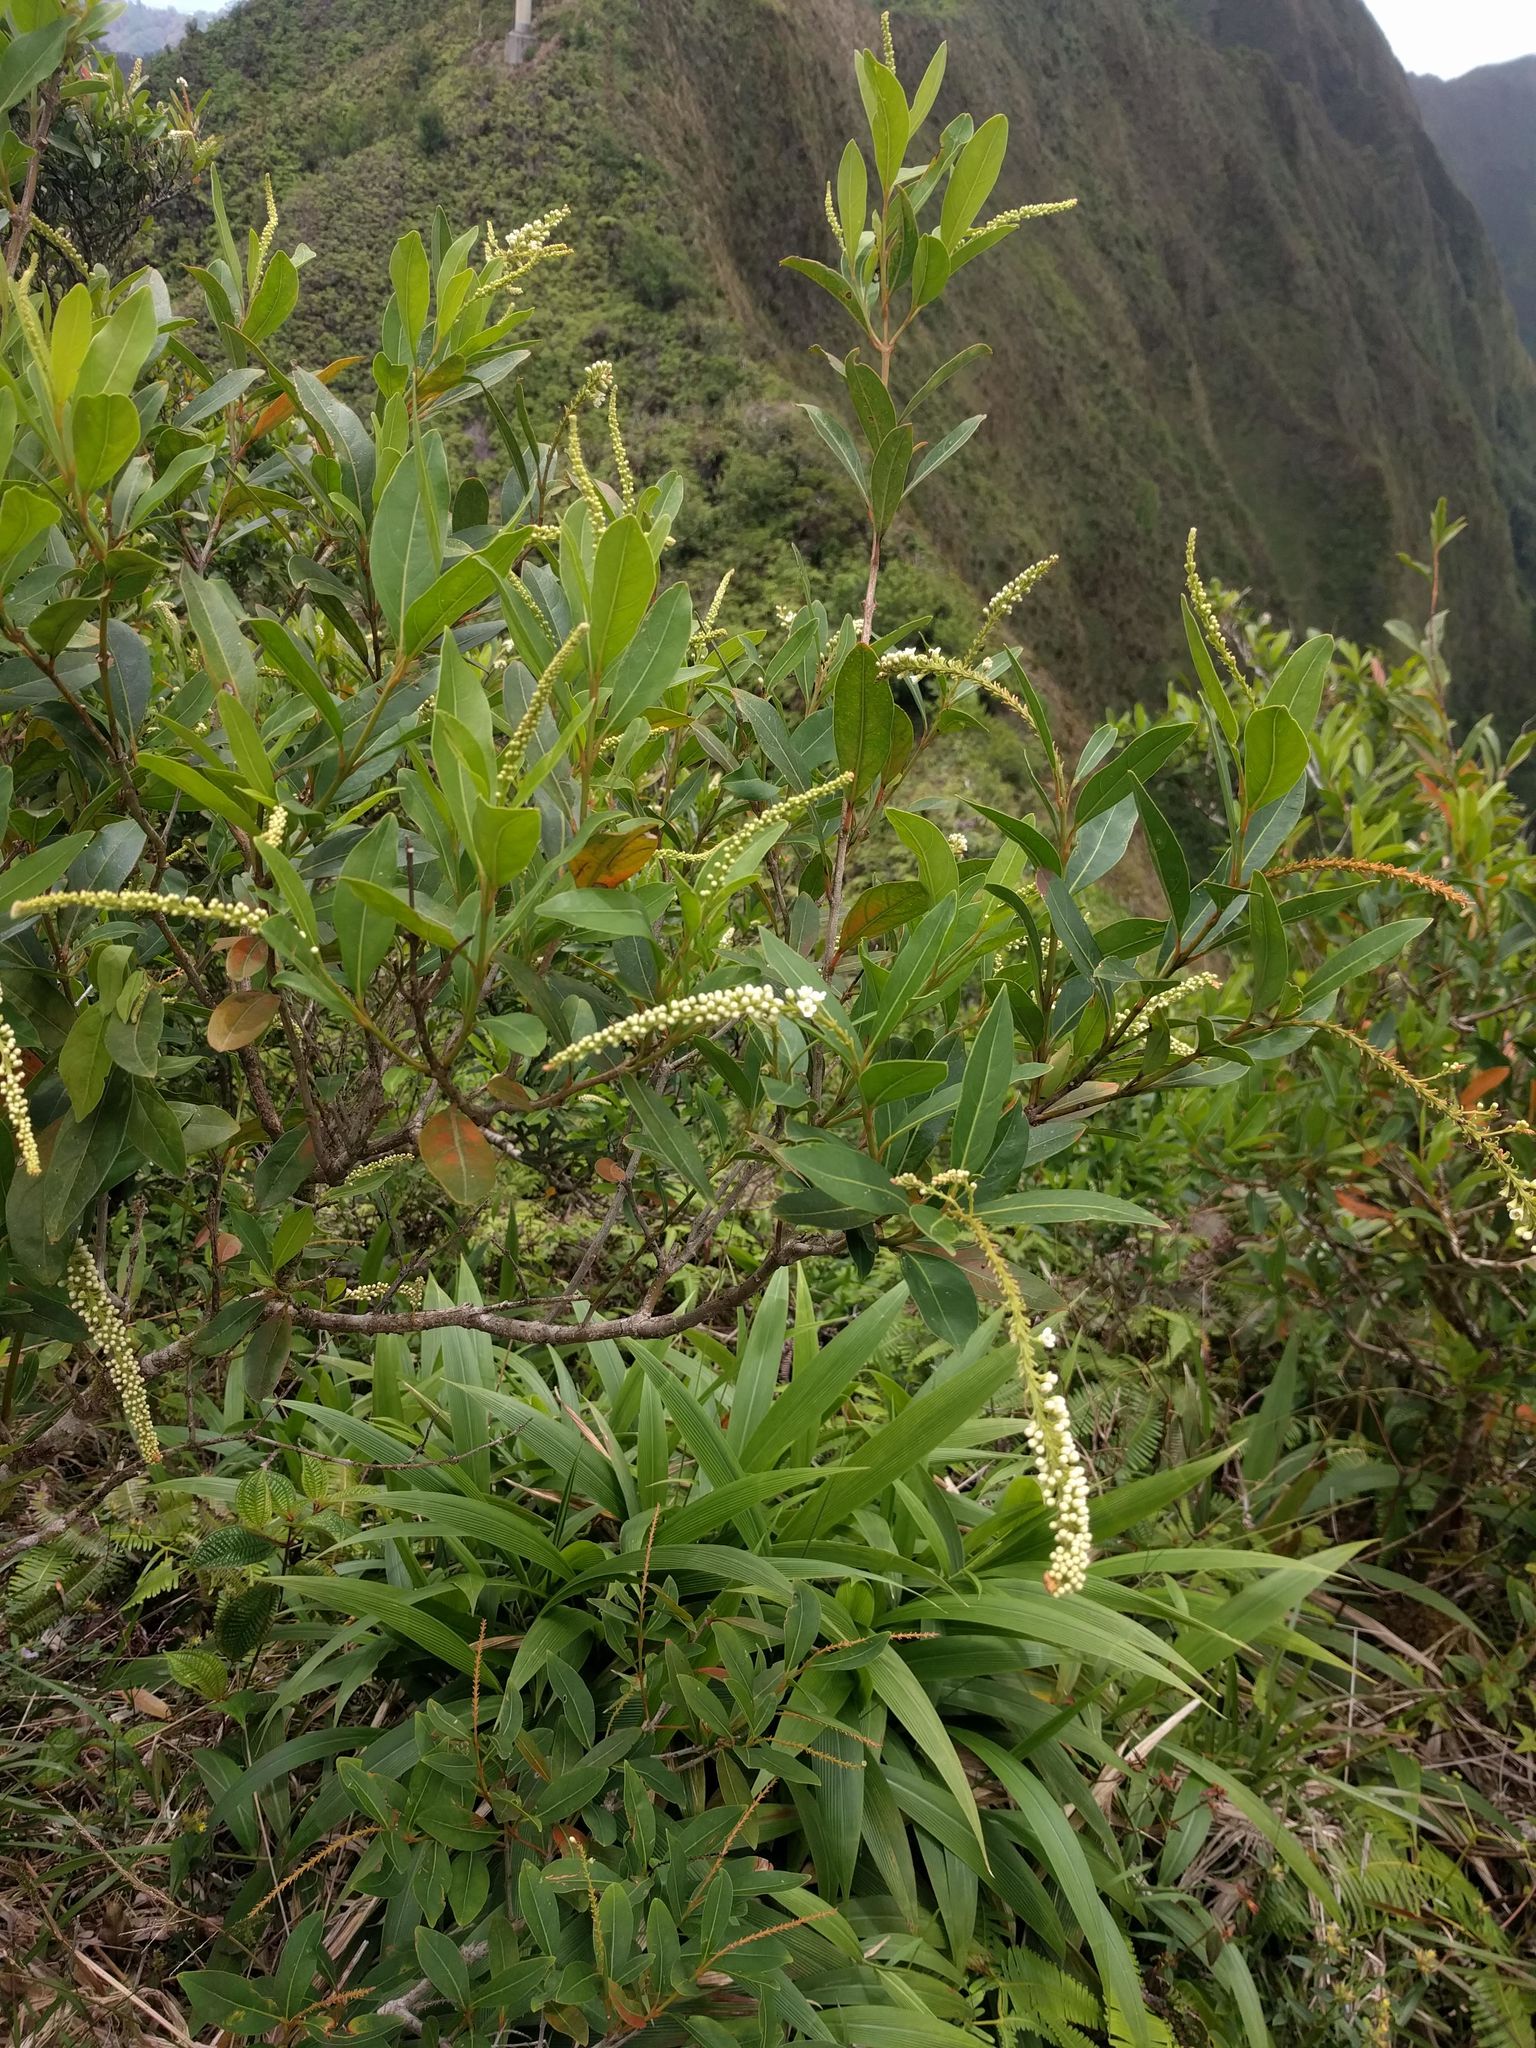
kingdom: Plantae
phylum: Tracheophyta
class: Magnoliopsida
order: Lamiales
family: Verbenaceae
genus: Citharexylum
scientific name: Citharexylum caudatum
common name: Fiddlewood
